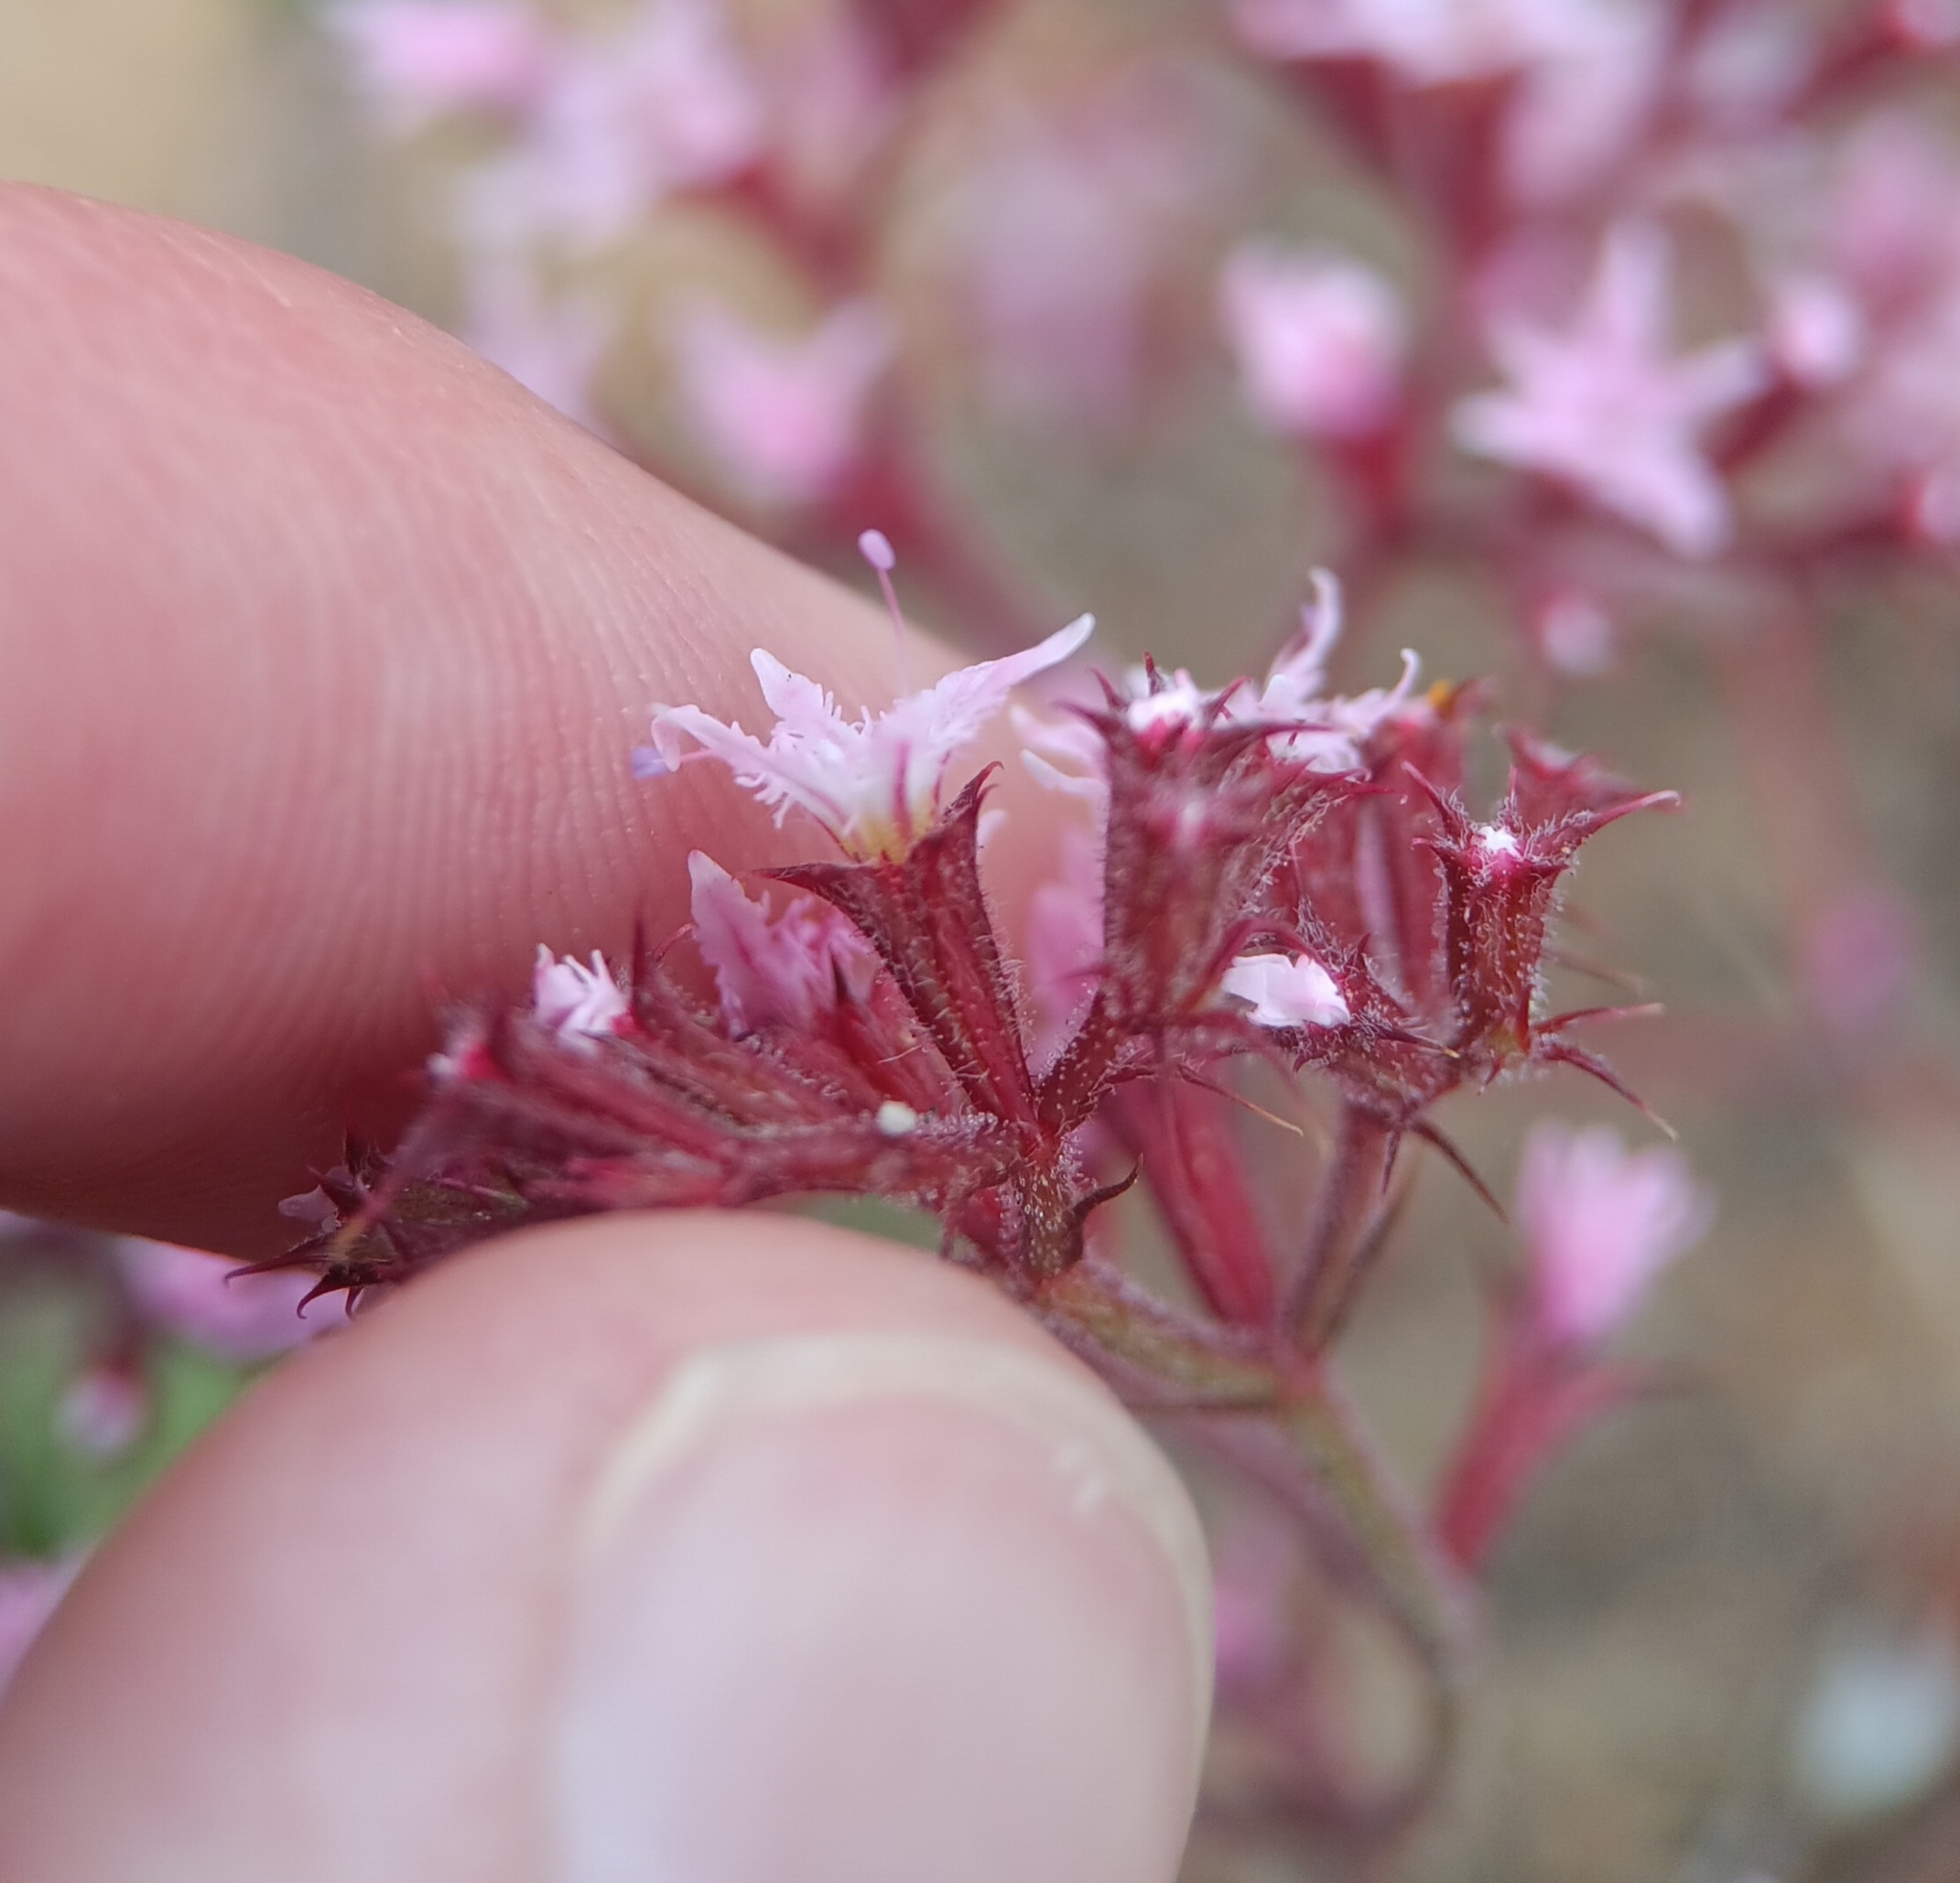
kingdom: Plantae
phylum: Tracheophyta
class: Magnoliopsida
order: Caryophyllales
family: Polygonaceae
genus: Chorizanthe
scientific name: Chorizanthe fimbriata
